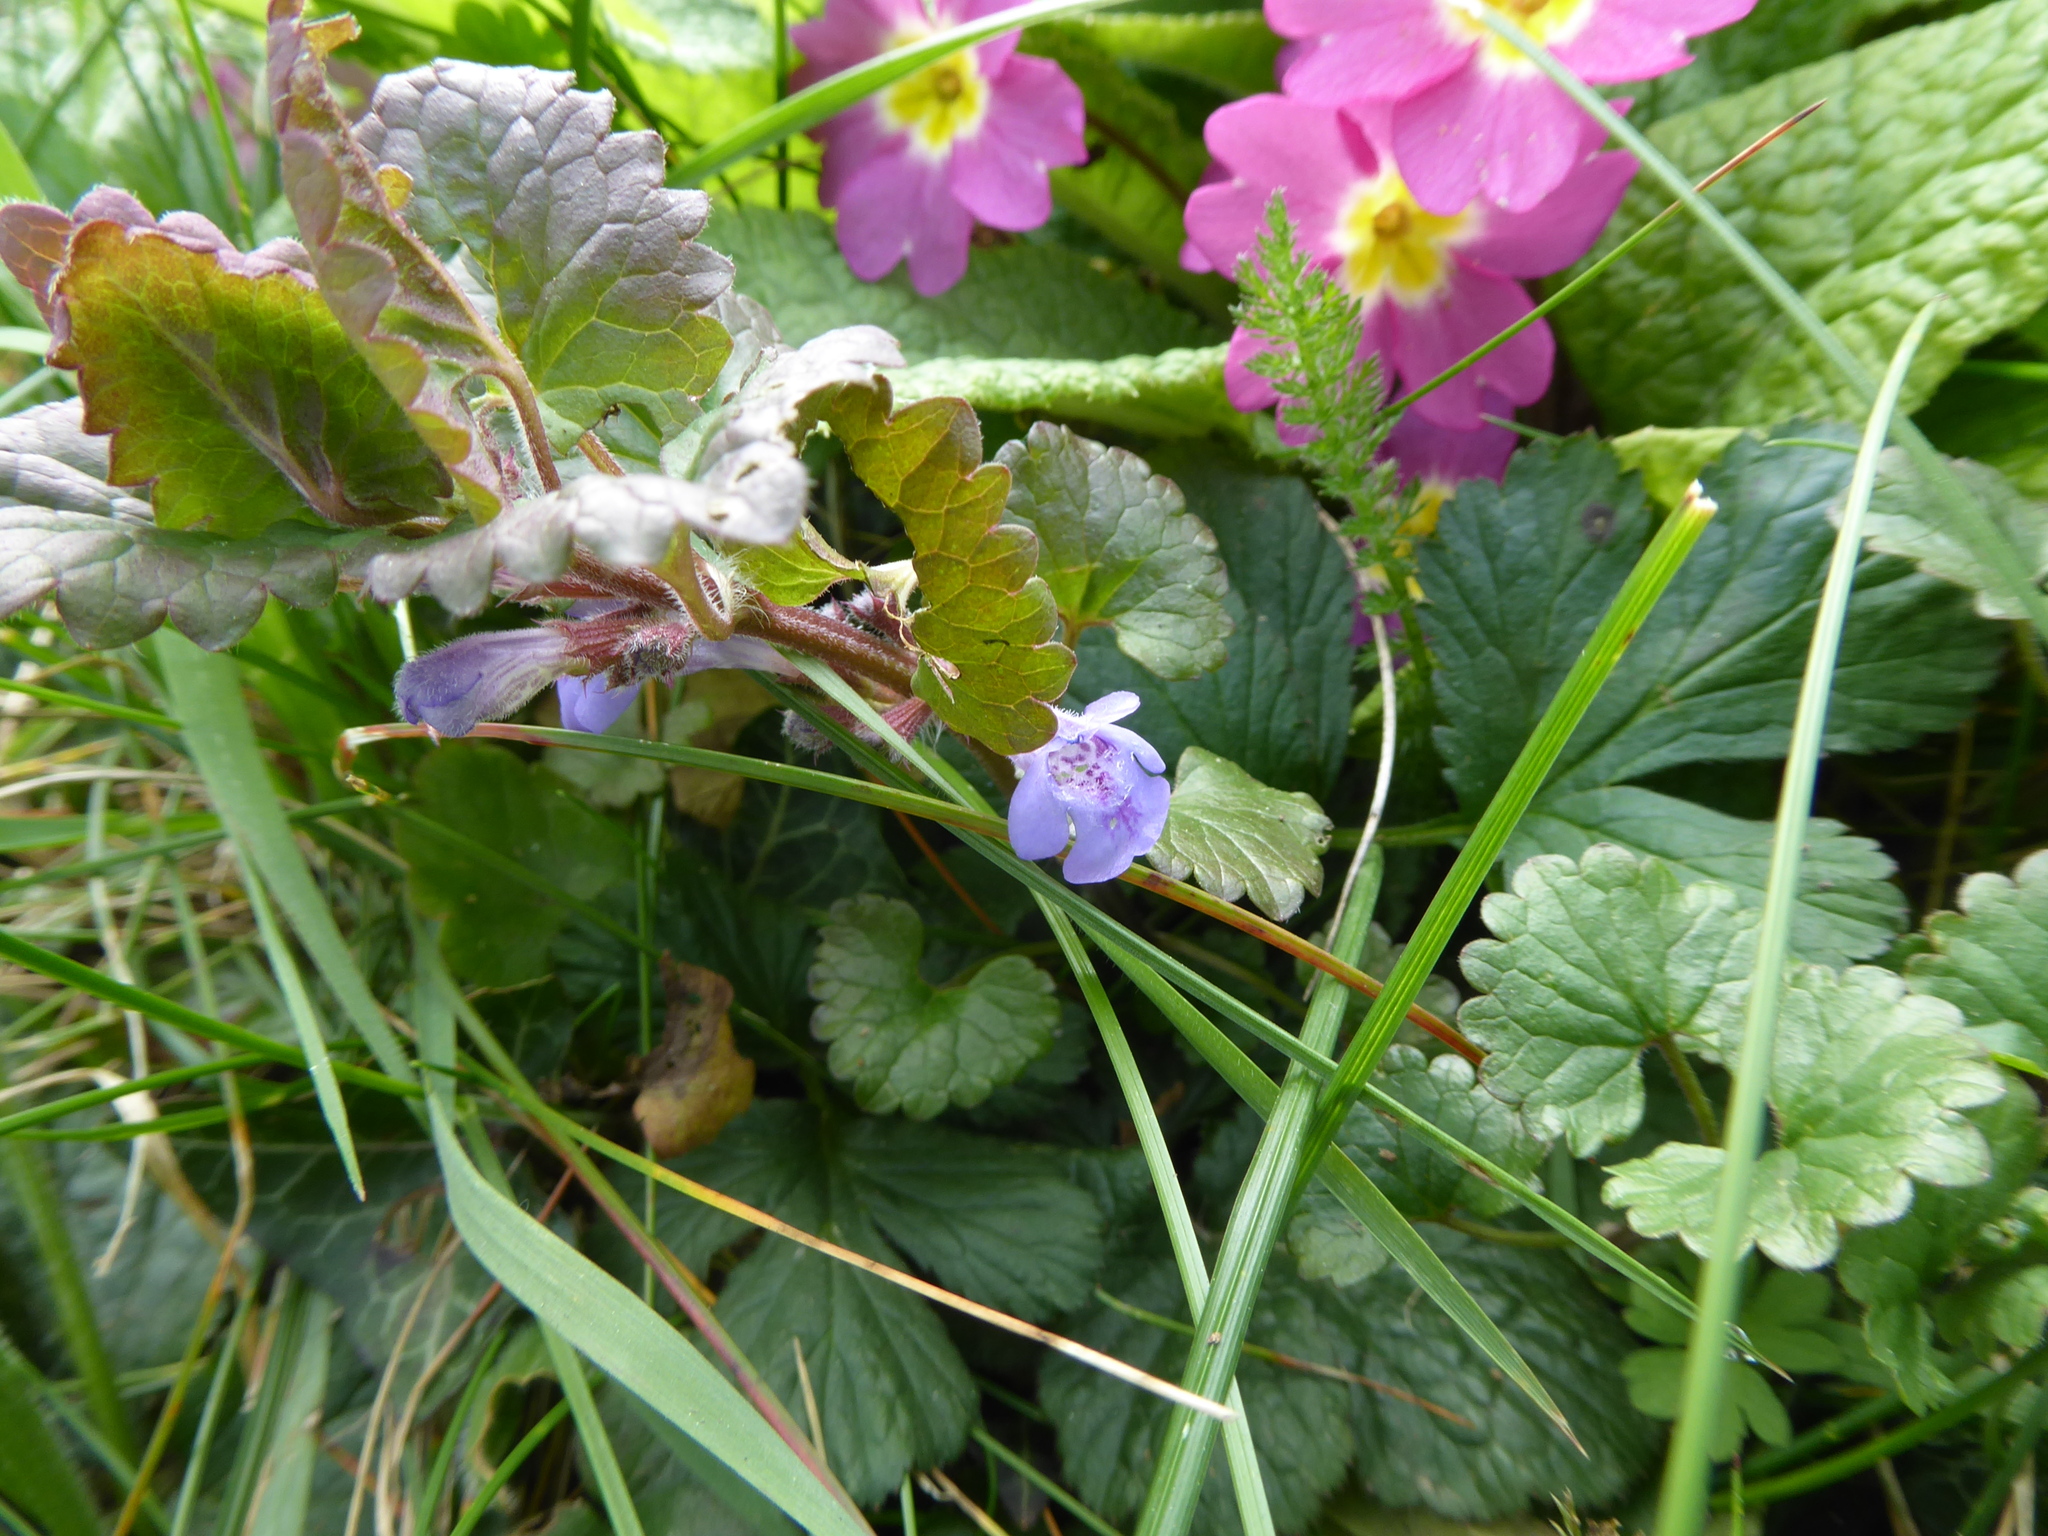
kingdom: Plantae
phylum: Tracheophyta
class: Magnoliopsida
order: Lamiales
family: Lamiaceae
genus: Glechoma
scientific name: Glechoma hederacea
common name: Ground ivy
